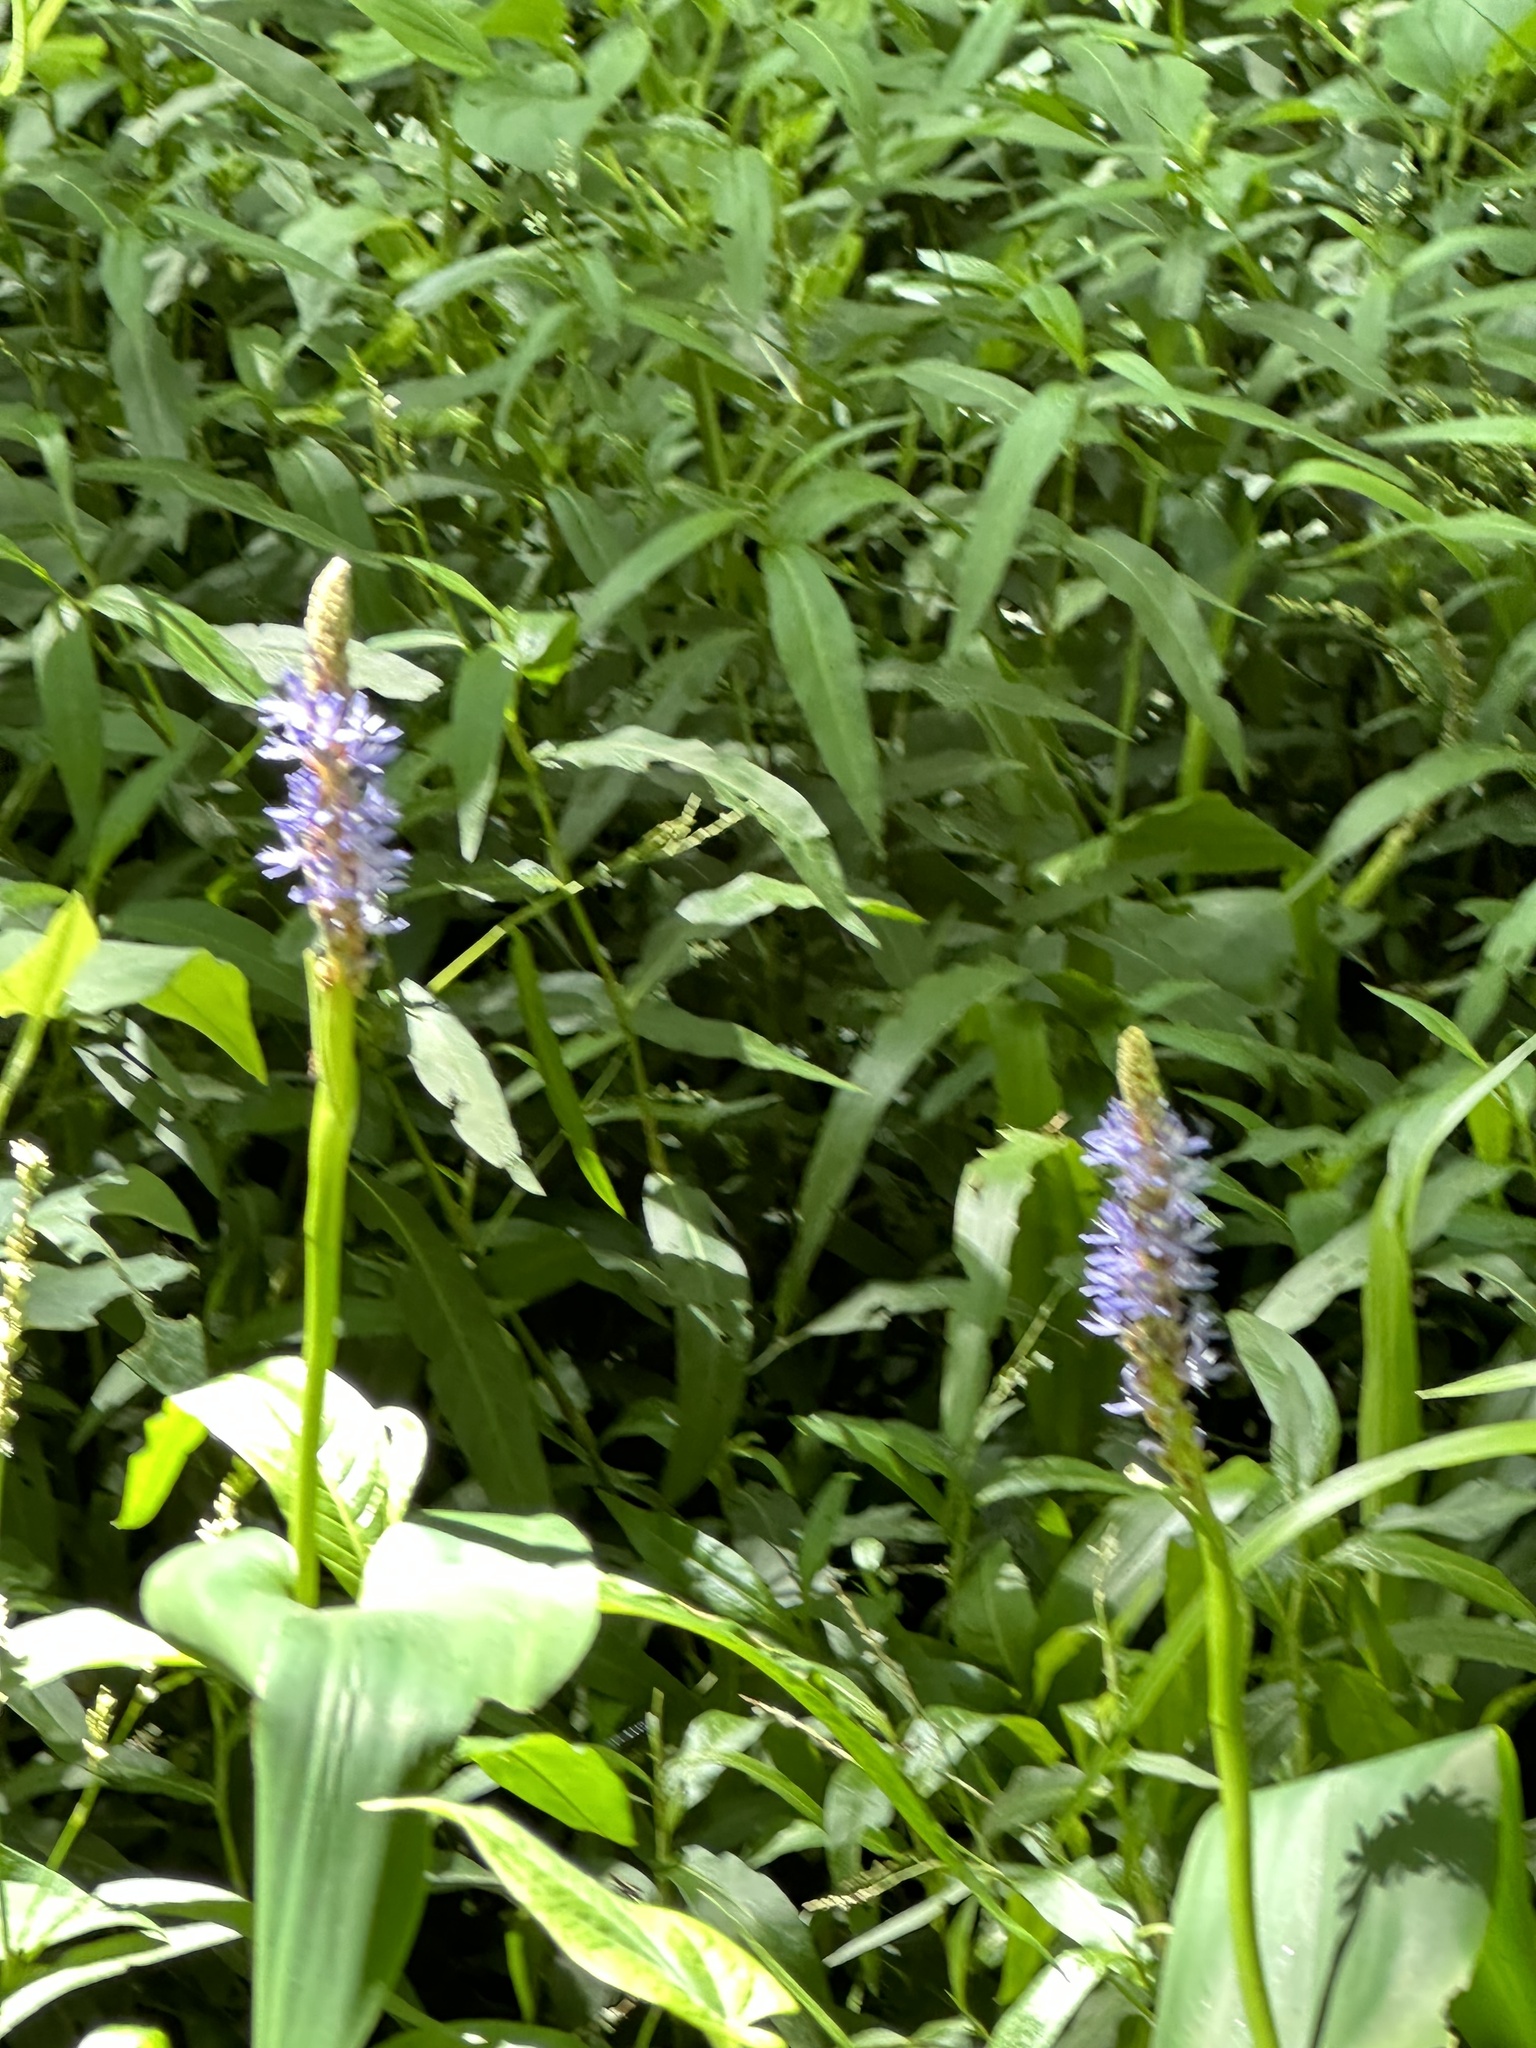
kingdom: Plantae
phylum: Tracheophyta
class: Liliopsida
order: Commelinales
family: Pontederiaceae
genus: Pontederia
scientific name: Pontederia cordata
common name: Pickerelweed
